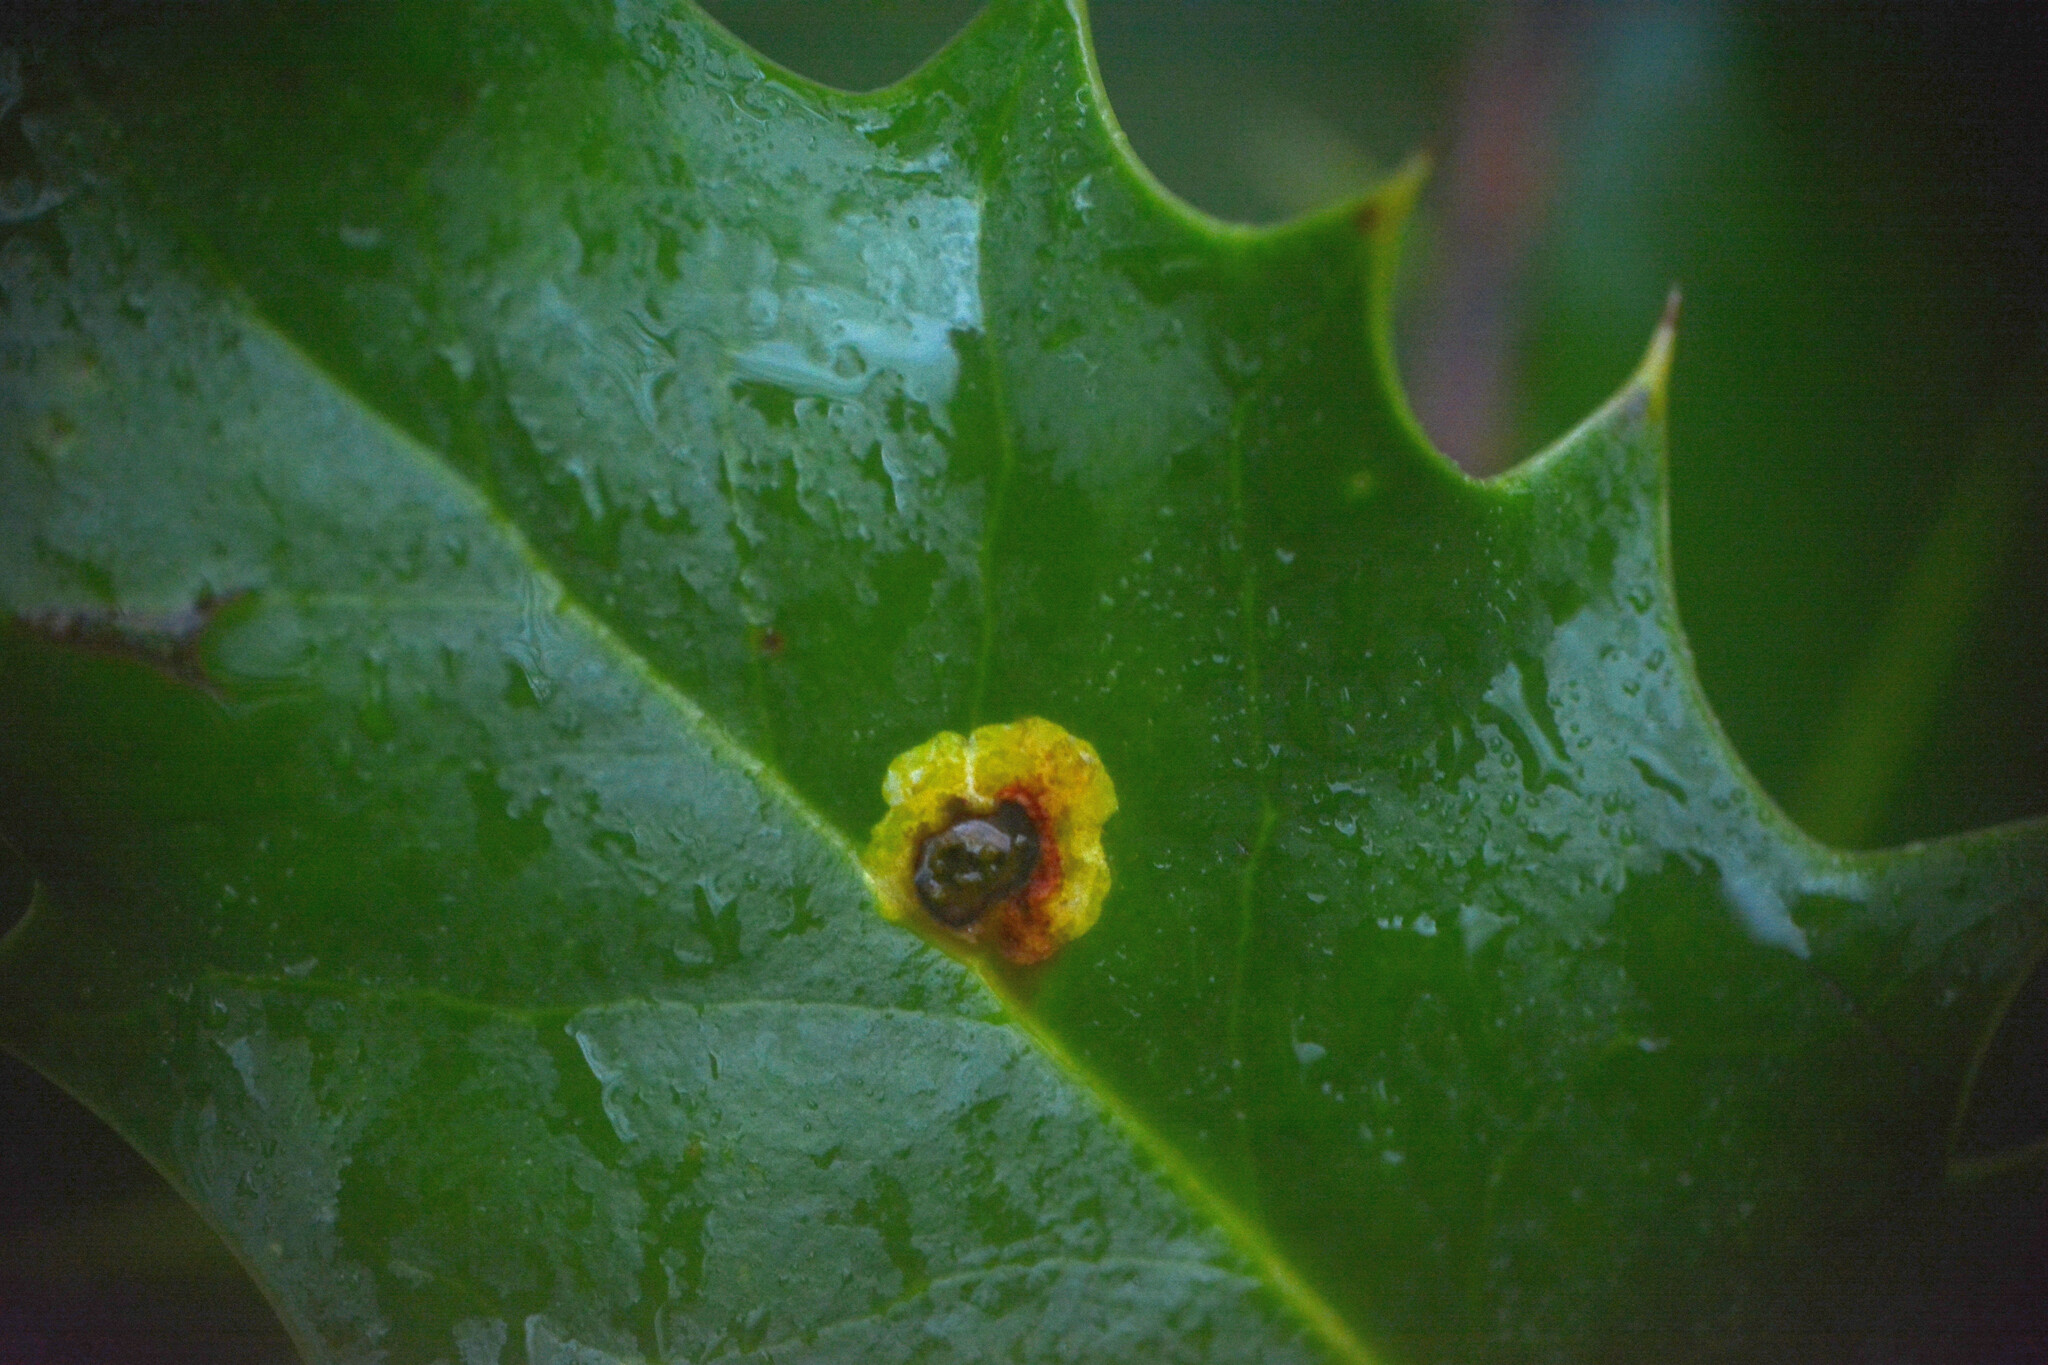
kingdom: Animalia
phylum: Arthropoda
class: Insecta
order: Diptera
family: Agromyzidae
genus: Phytomyza
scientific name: Phytomyza ilicis
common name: Holly leafminer
